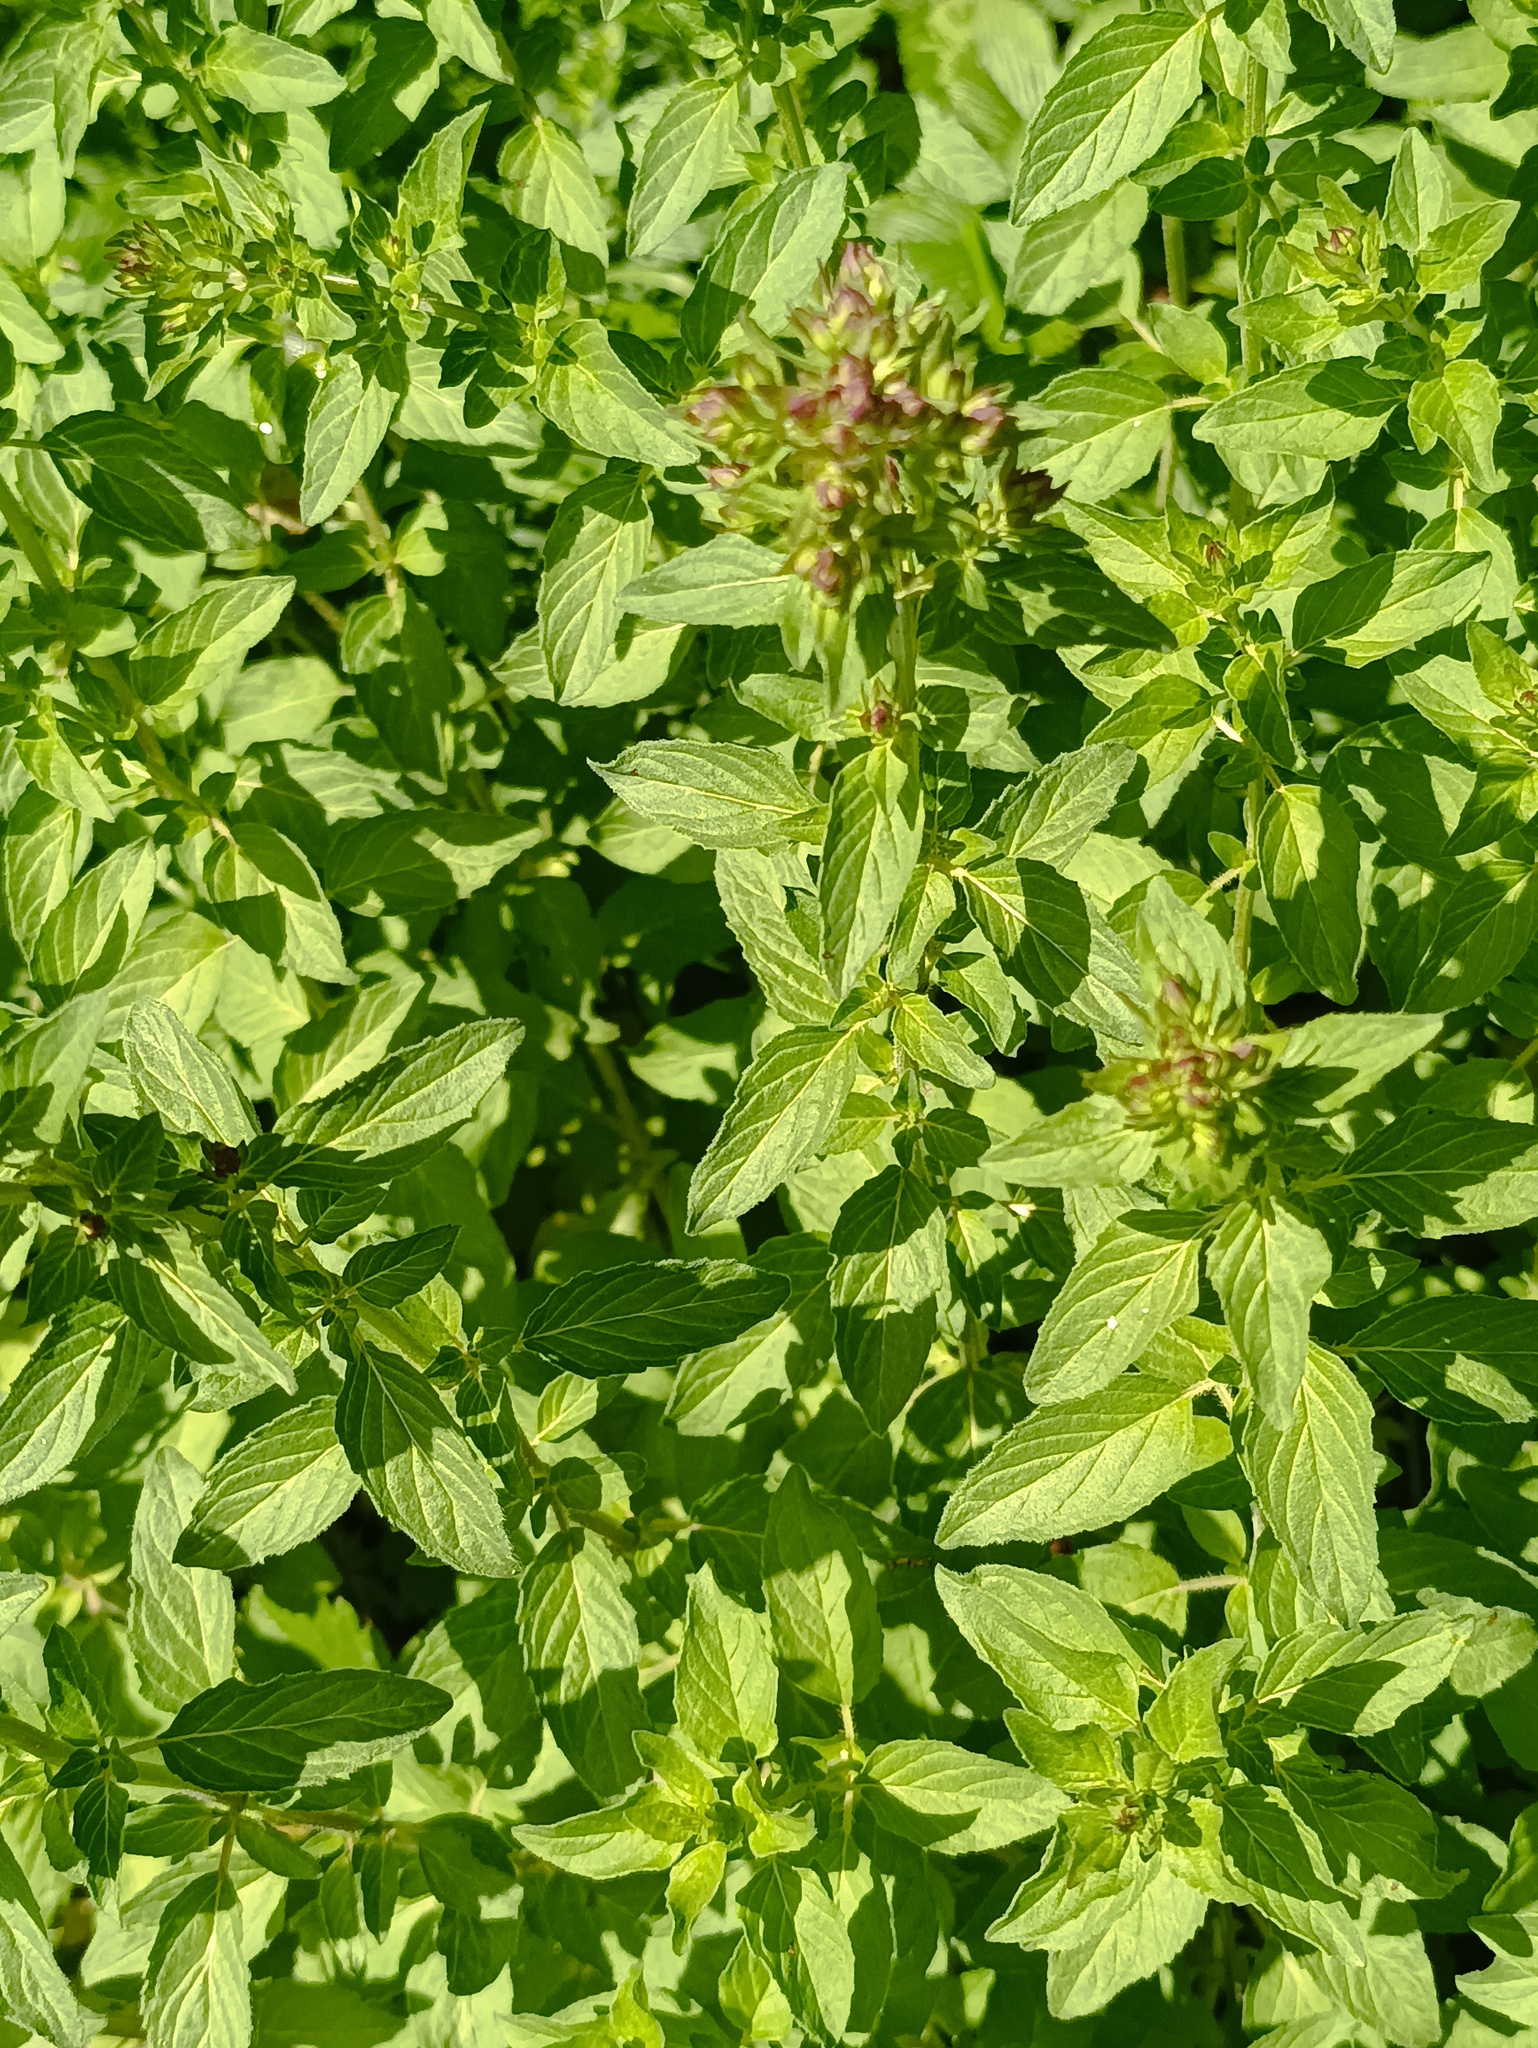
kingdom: Plantae
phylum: Tracheophyta
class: Magnoliopsida
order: Lamiales
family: Lamiaceae
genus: Origanum
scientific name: Origanum vulgare
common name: Wild marjoram
